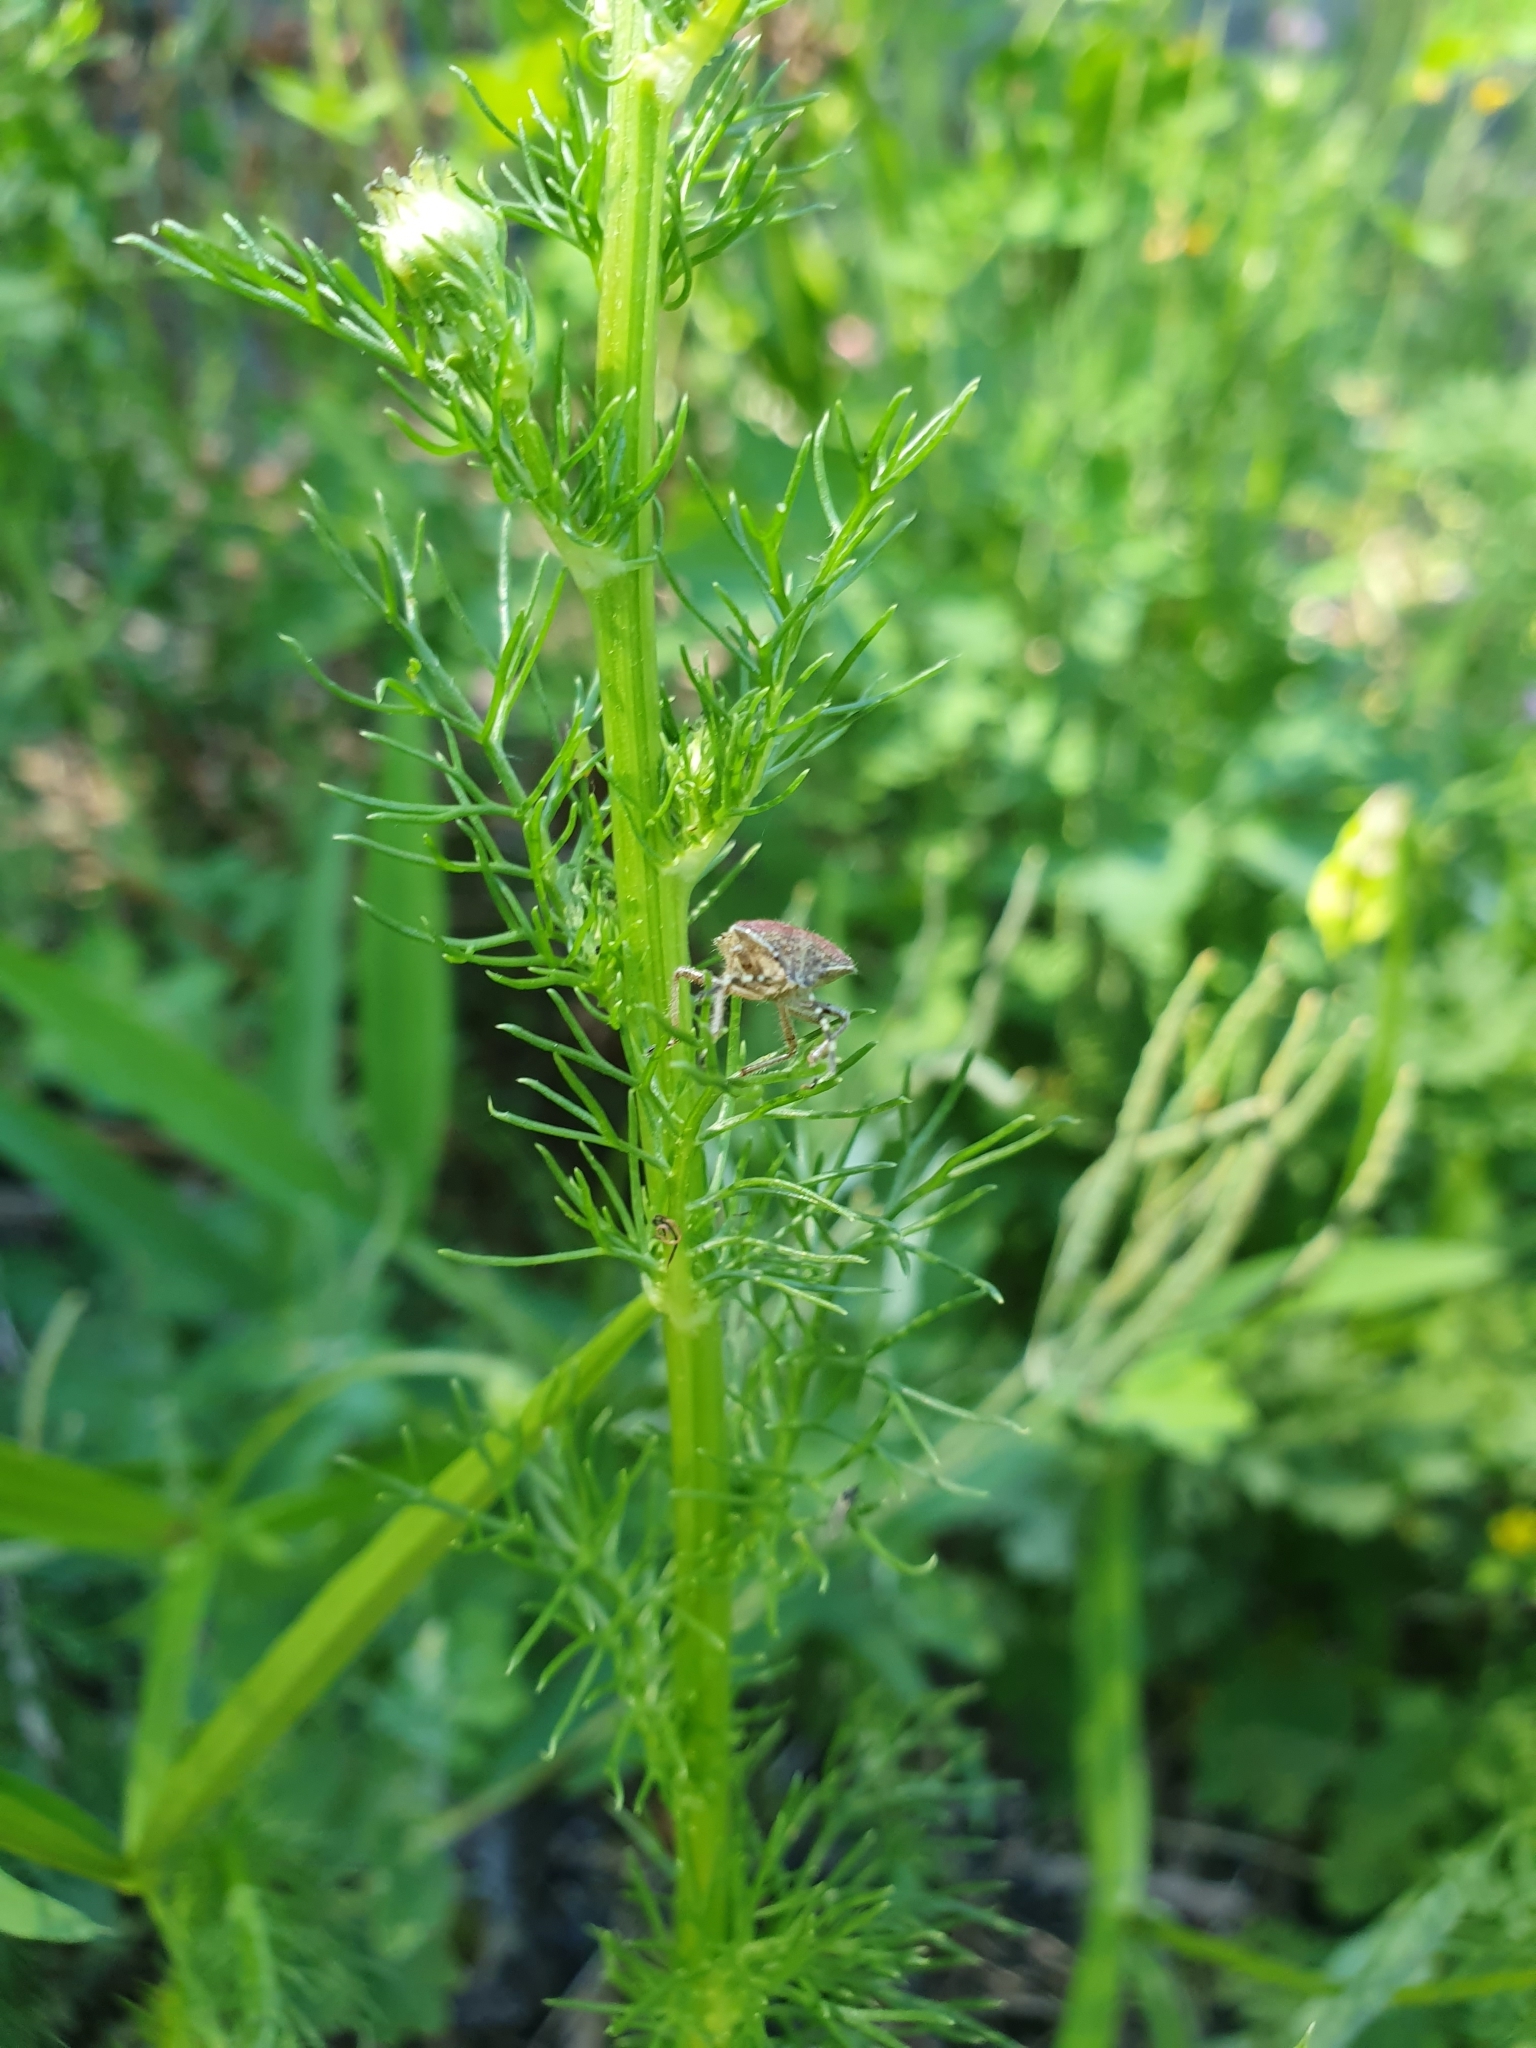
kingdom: Animalia
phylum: Arthropoda
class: Insecta
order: Hemiptera
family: Pentatomidae
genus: Dolycoris
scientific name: Dolycoris baccarum
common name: Sloe bug
